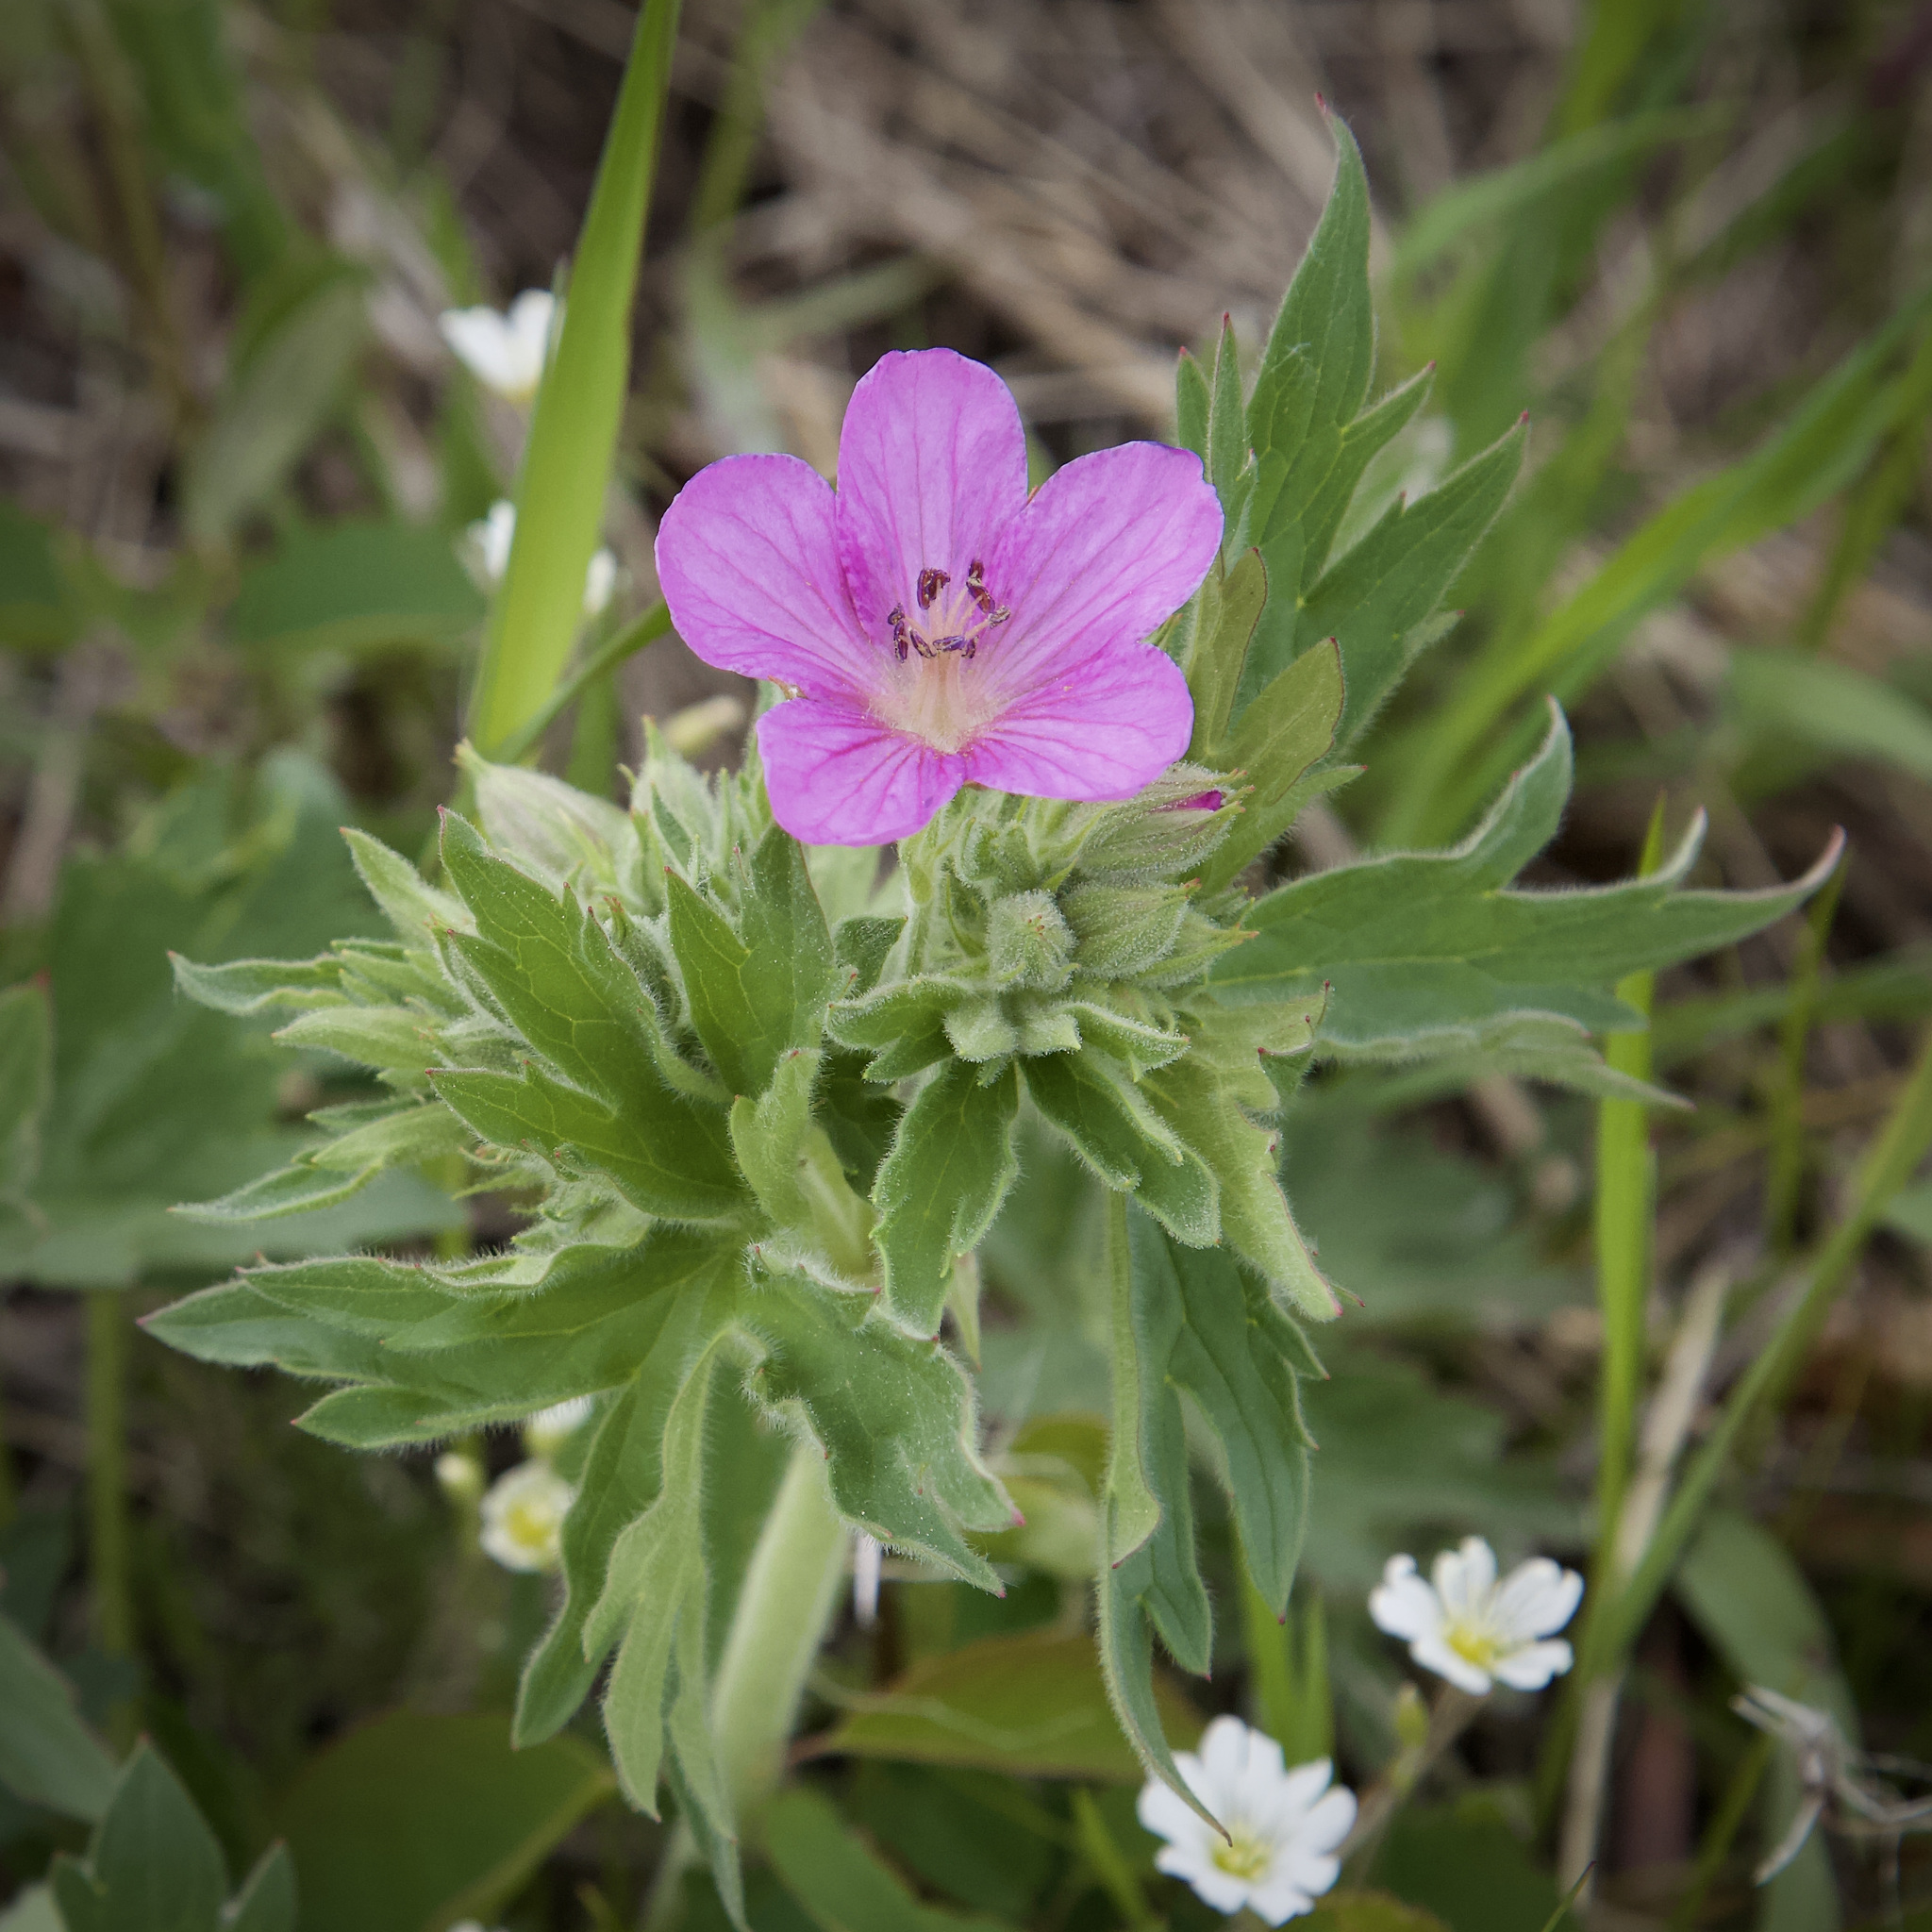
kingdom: Plantae
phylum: Tracheophyta
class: Magnoliopsida
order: Geraniales
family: Geraniaceae
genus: Geranium
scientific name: Geranium viscosissimum
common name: Purple geranium
